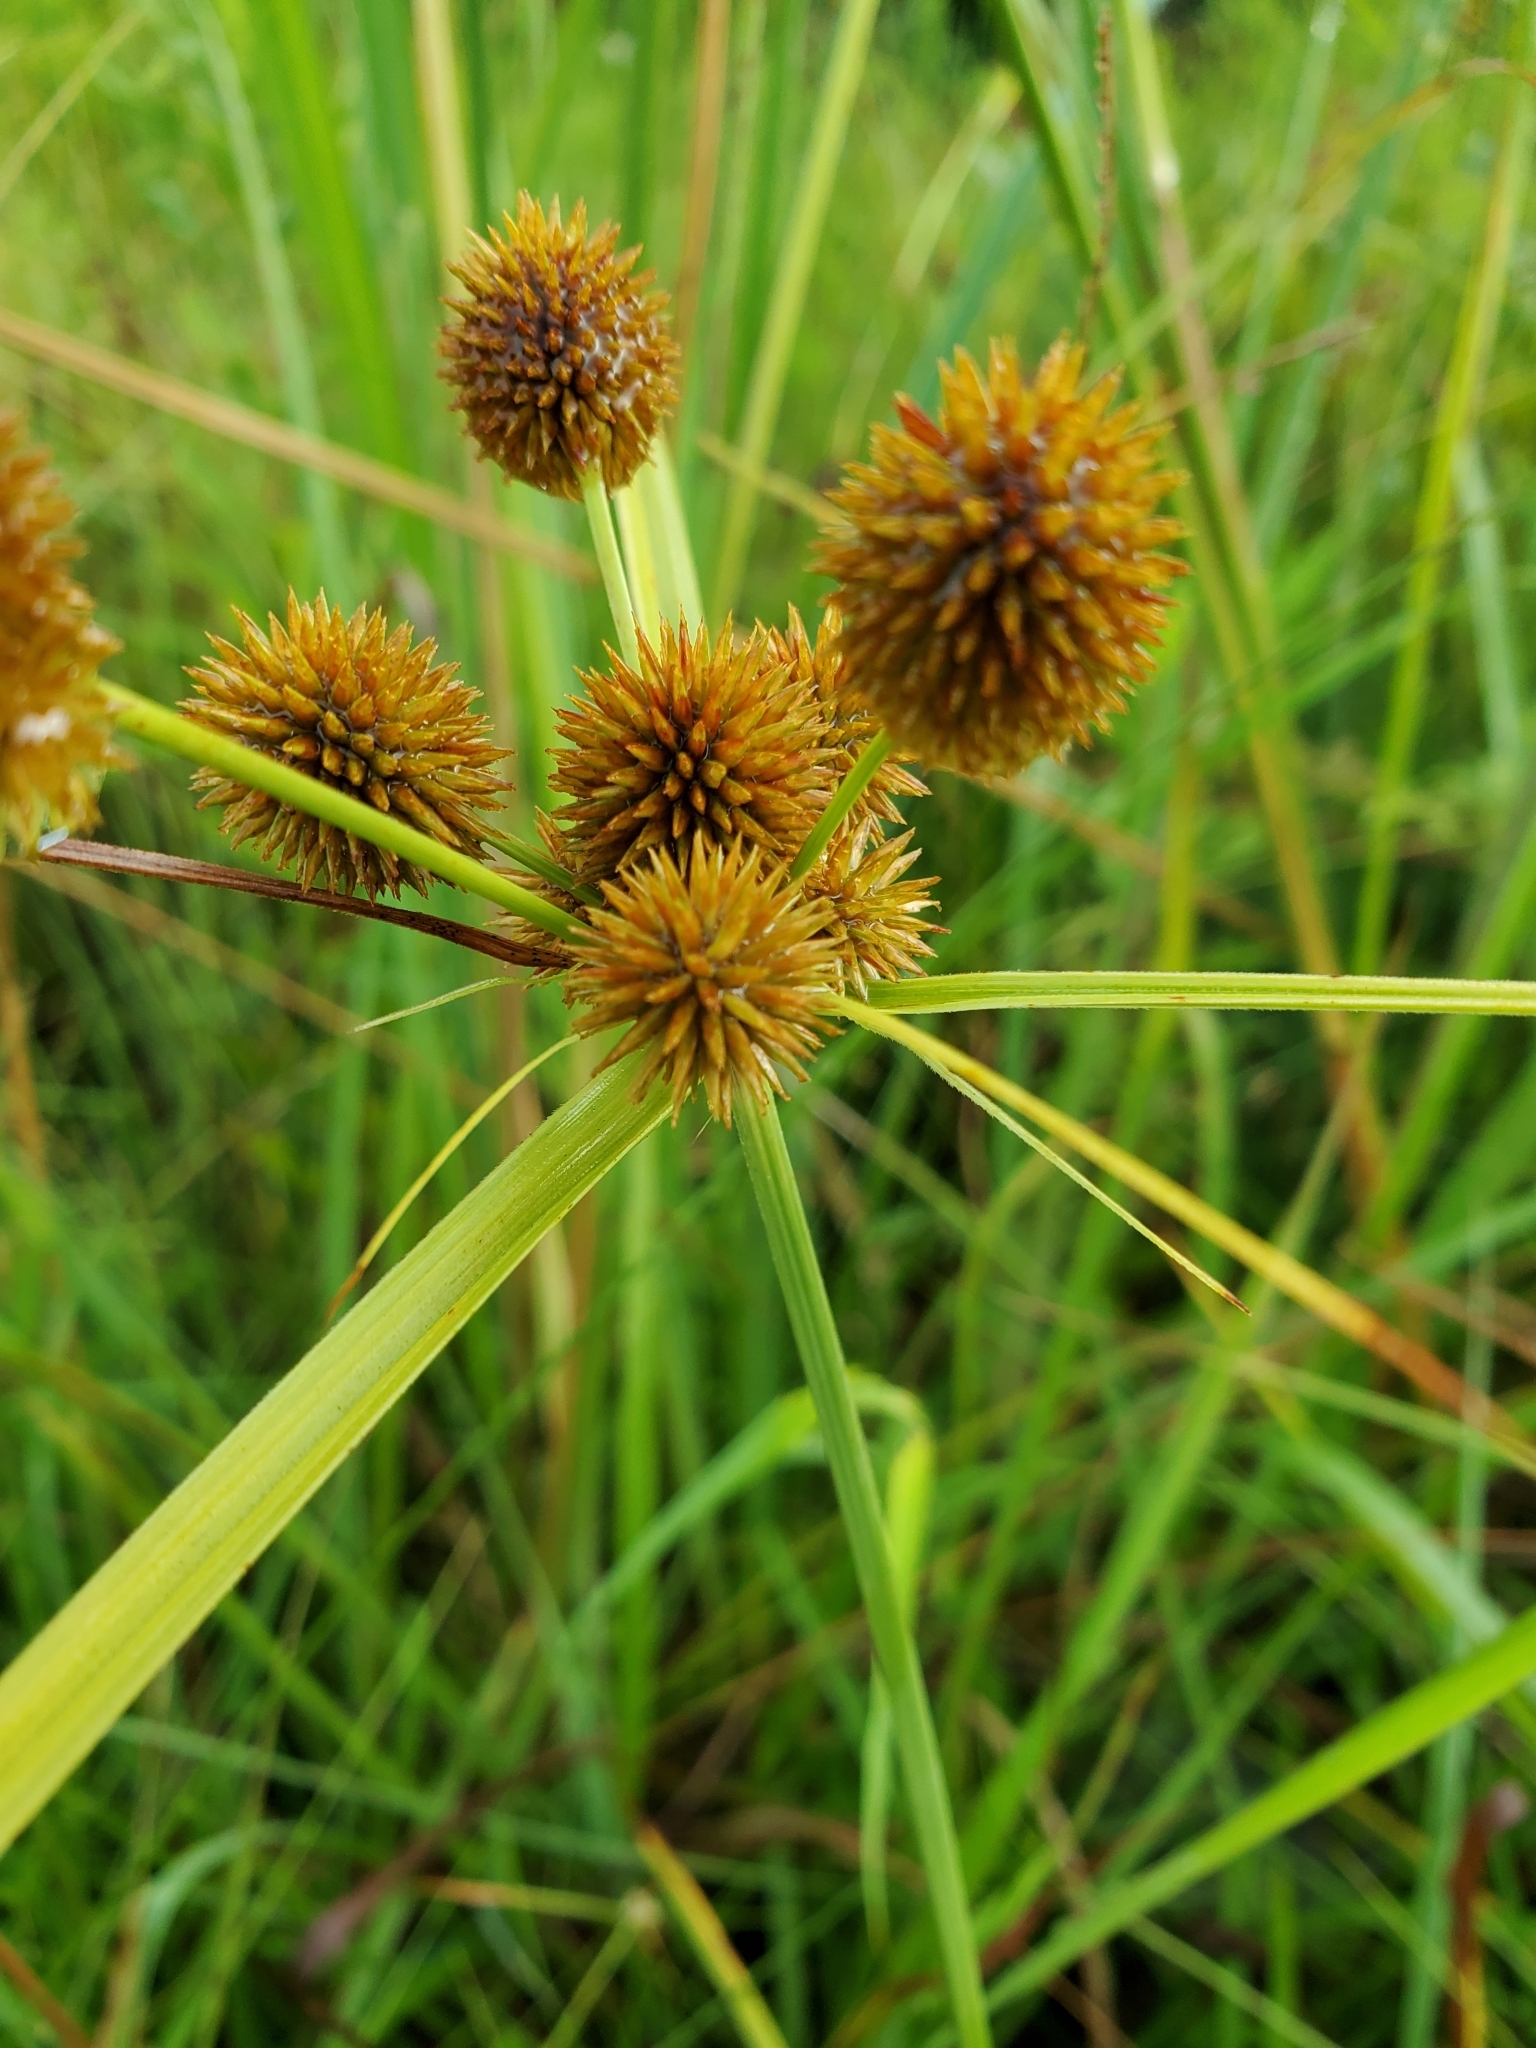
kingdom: Plantae
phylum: Tracheophyta
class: Liliopsida
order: Poales
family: Cyperaceae
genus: Cyperus
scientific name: Cyperus echinatus
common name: Teasel sedge
